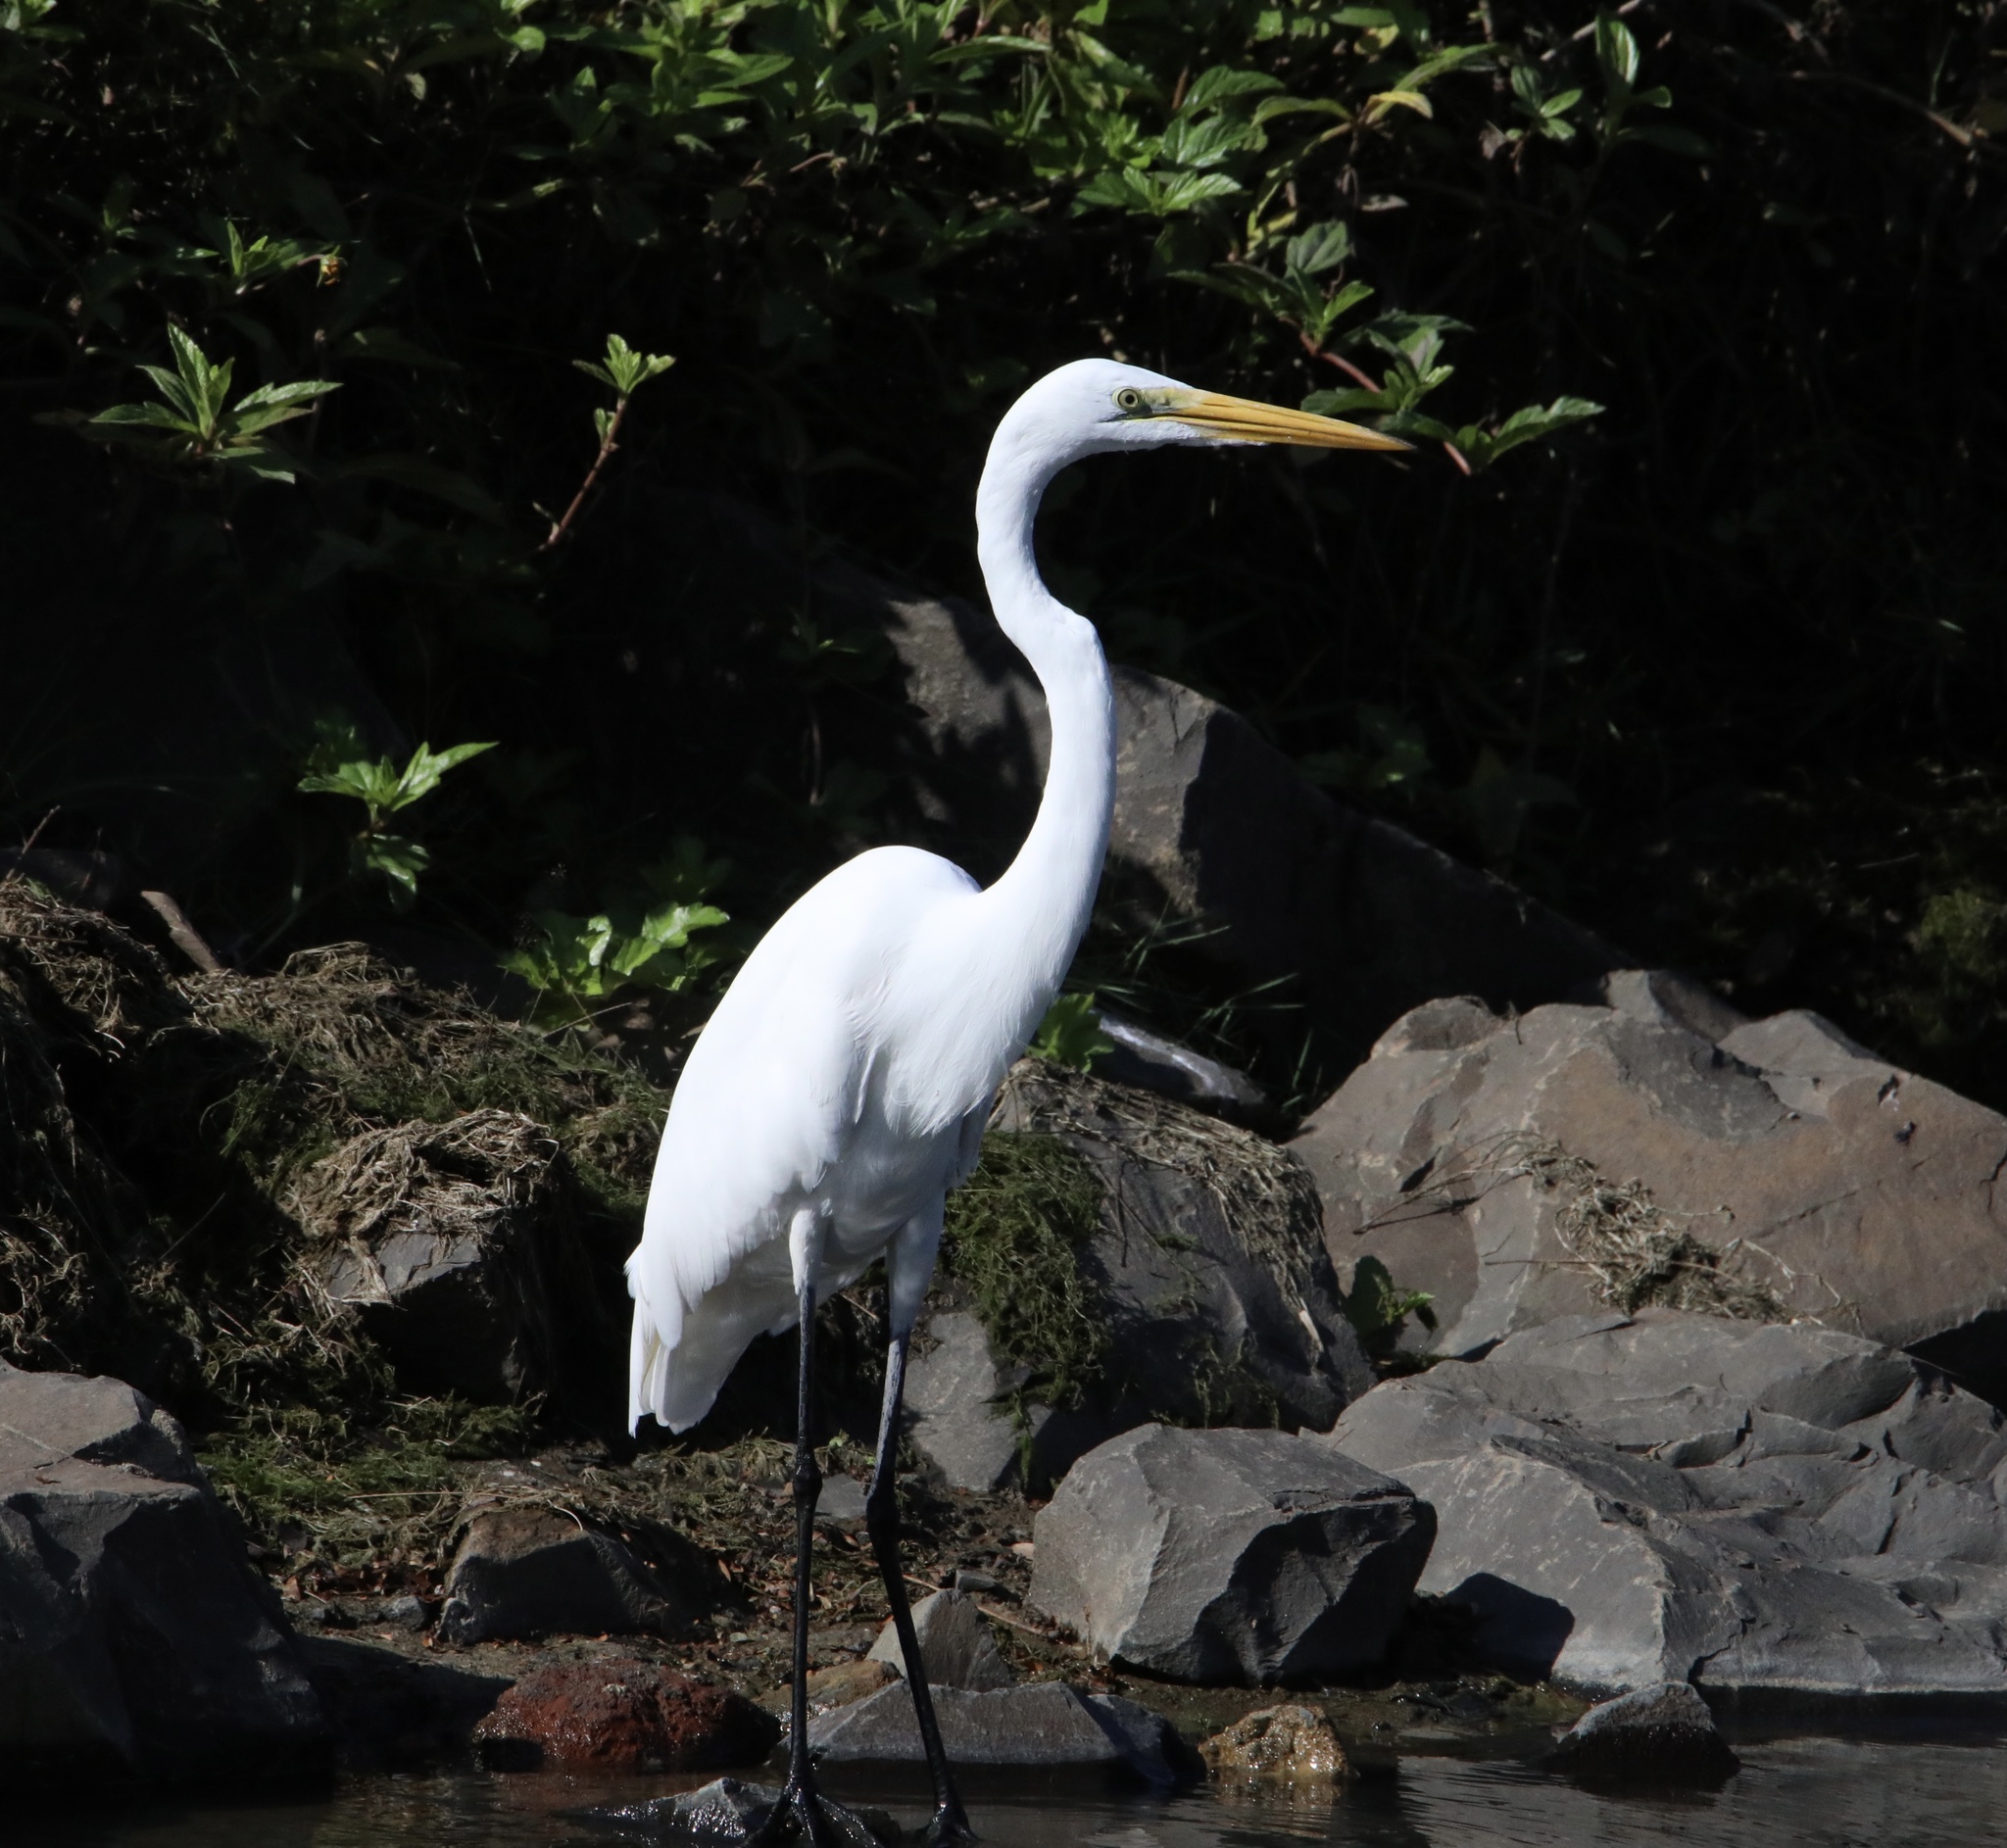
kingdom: Animalia
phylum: Chordata
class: Aves
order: Pelecaniformes
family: Ardeidae
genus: Ardea
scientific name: Ardea alba
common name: Great egret
